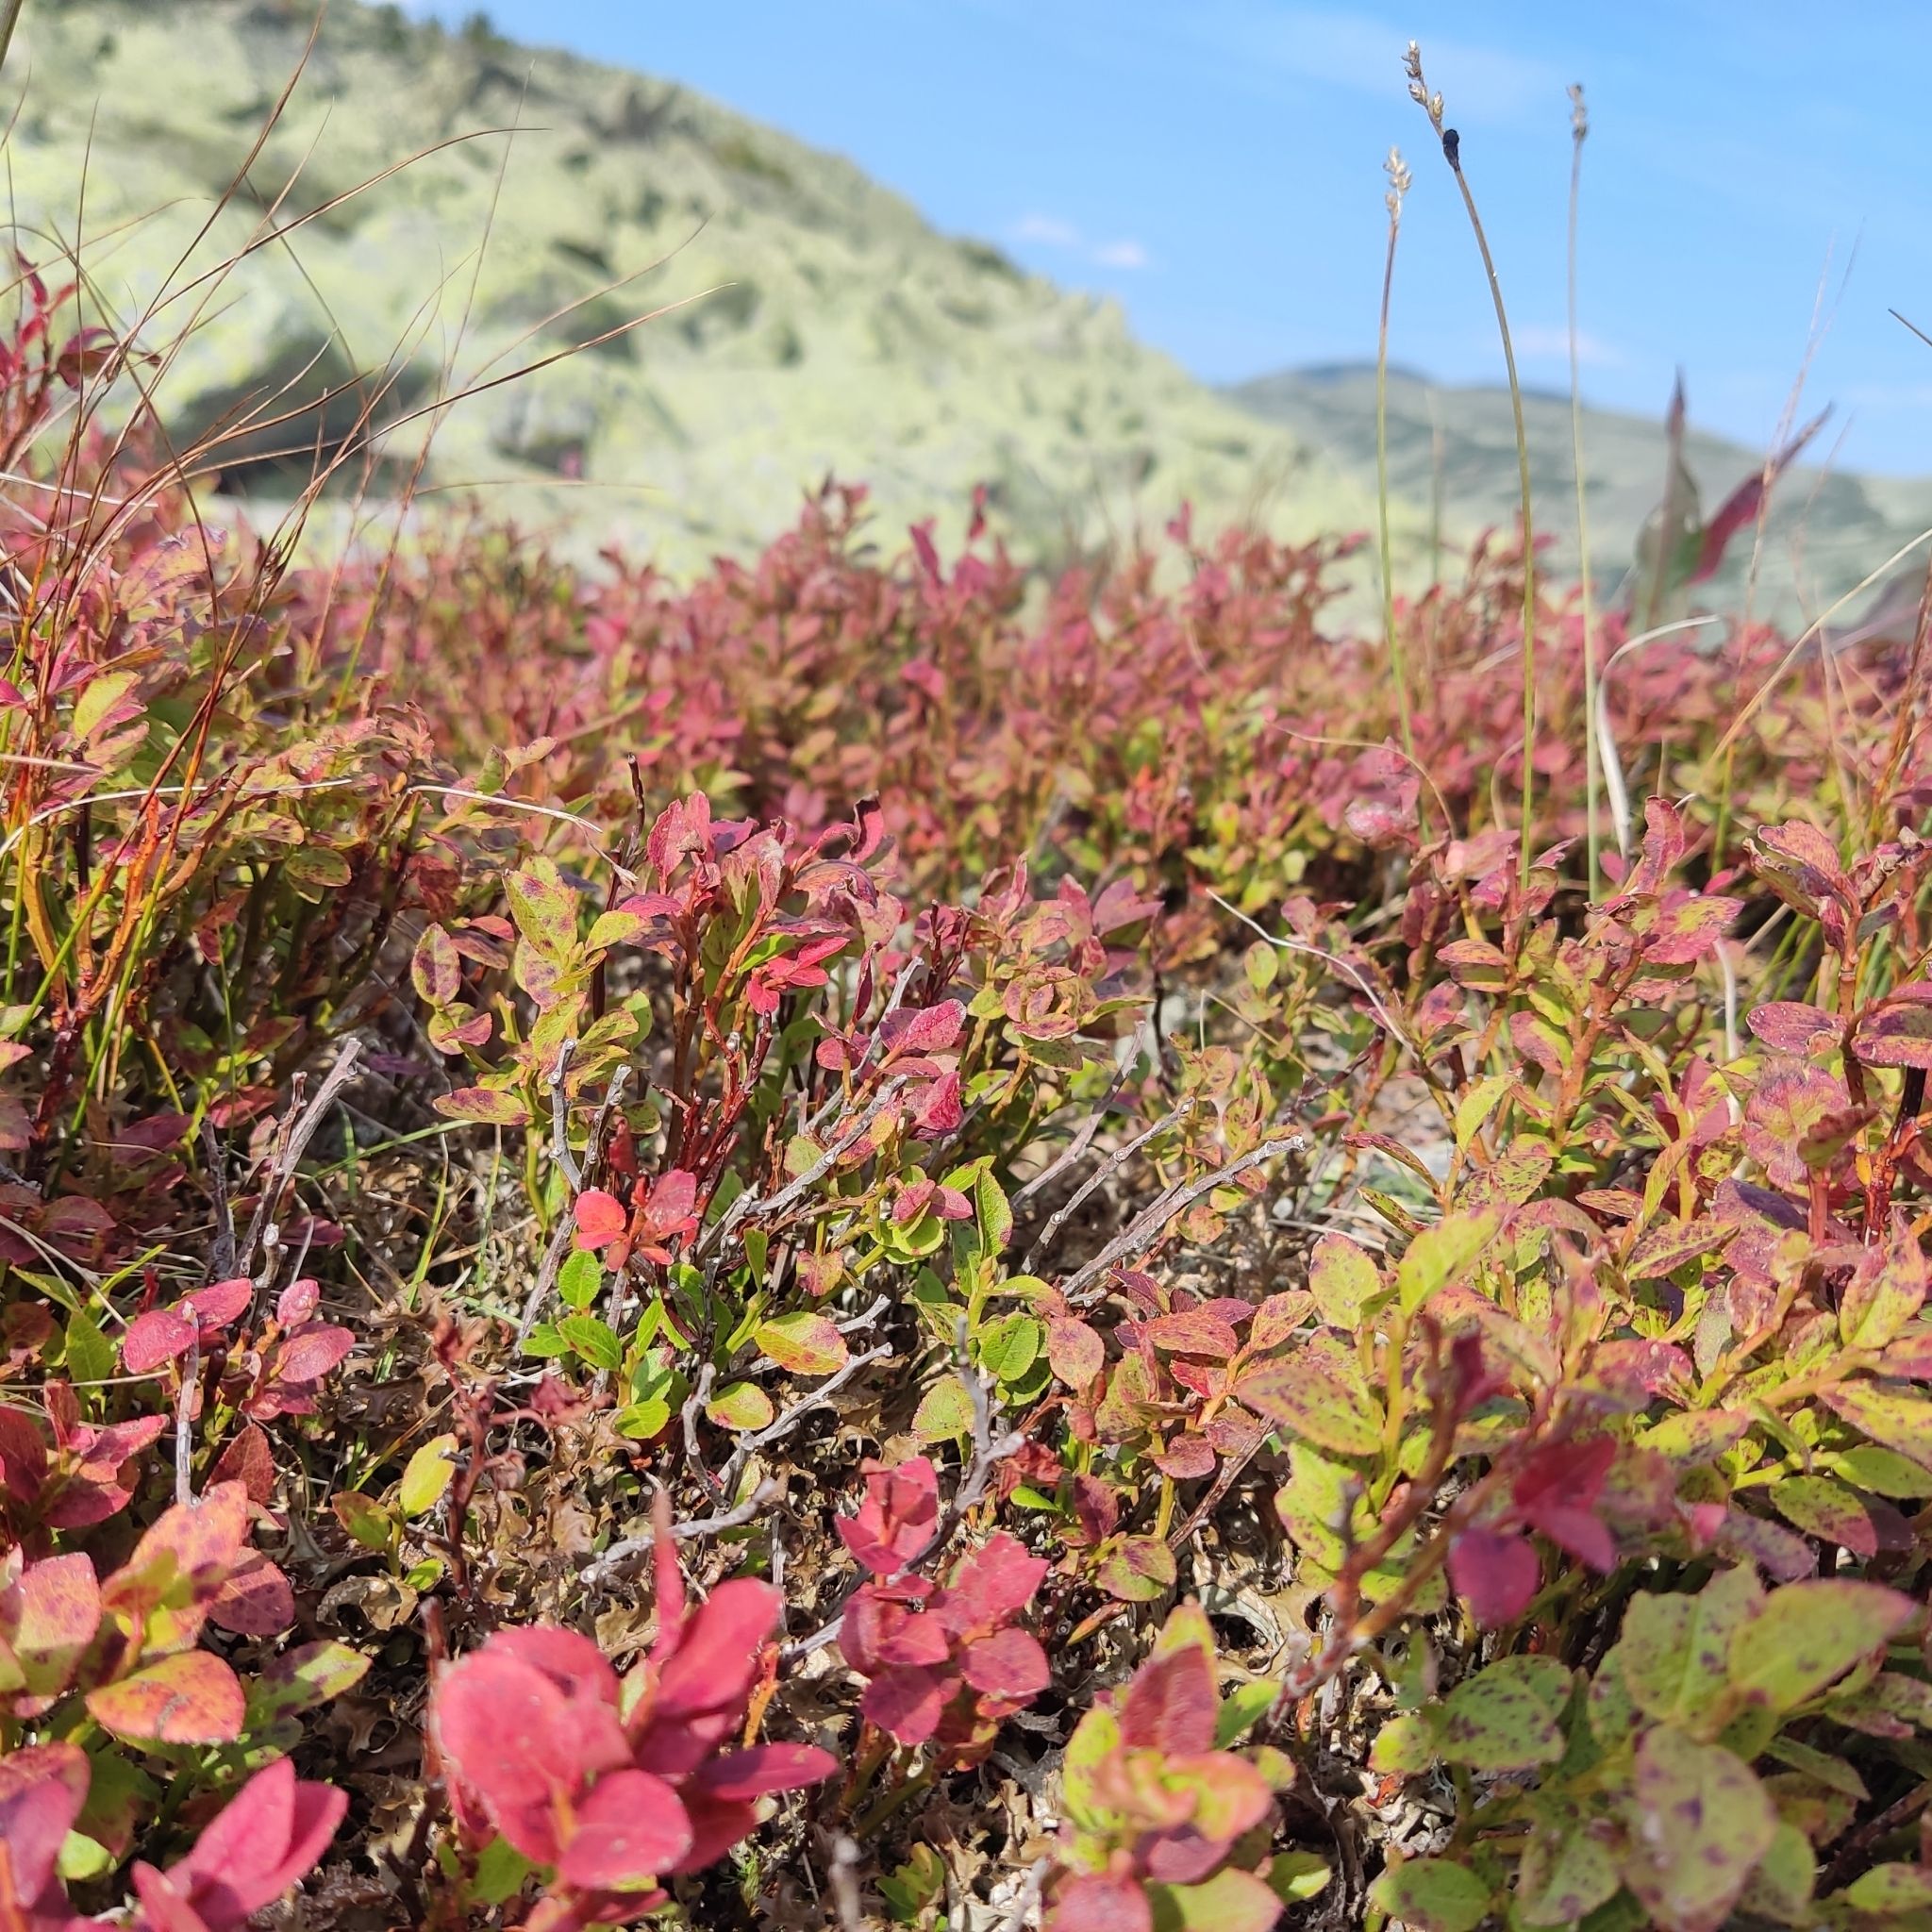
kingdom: Plantae
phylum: Tracheophyta
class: Magnoliopsida
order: Ericales
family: Ericaceae
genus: Vaccinium
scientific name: Vaccinium myrtillus
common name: Bilberry
